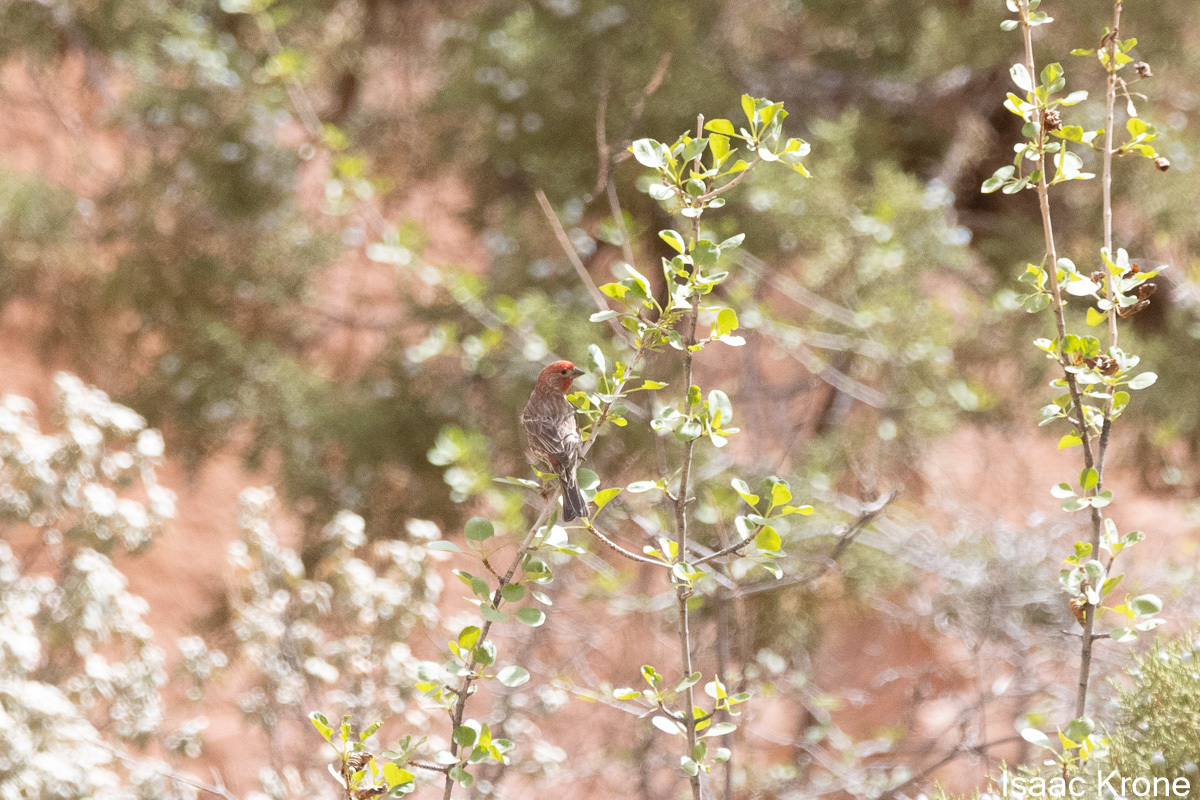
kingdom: Animalia
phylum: Chordata
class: Aves
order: Passeriformes
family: Fringillidae
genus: Haemorhous
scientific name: Haemorhous mexicanus
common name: House finch
